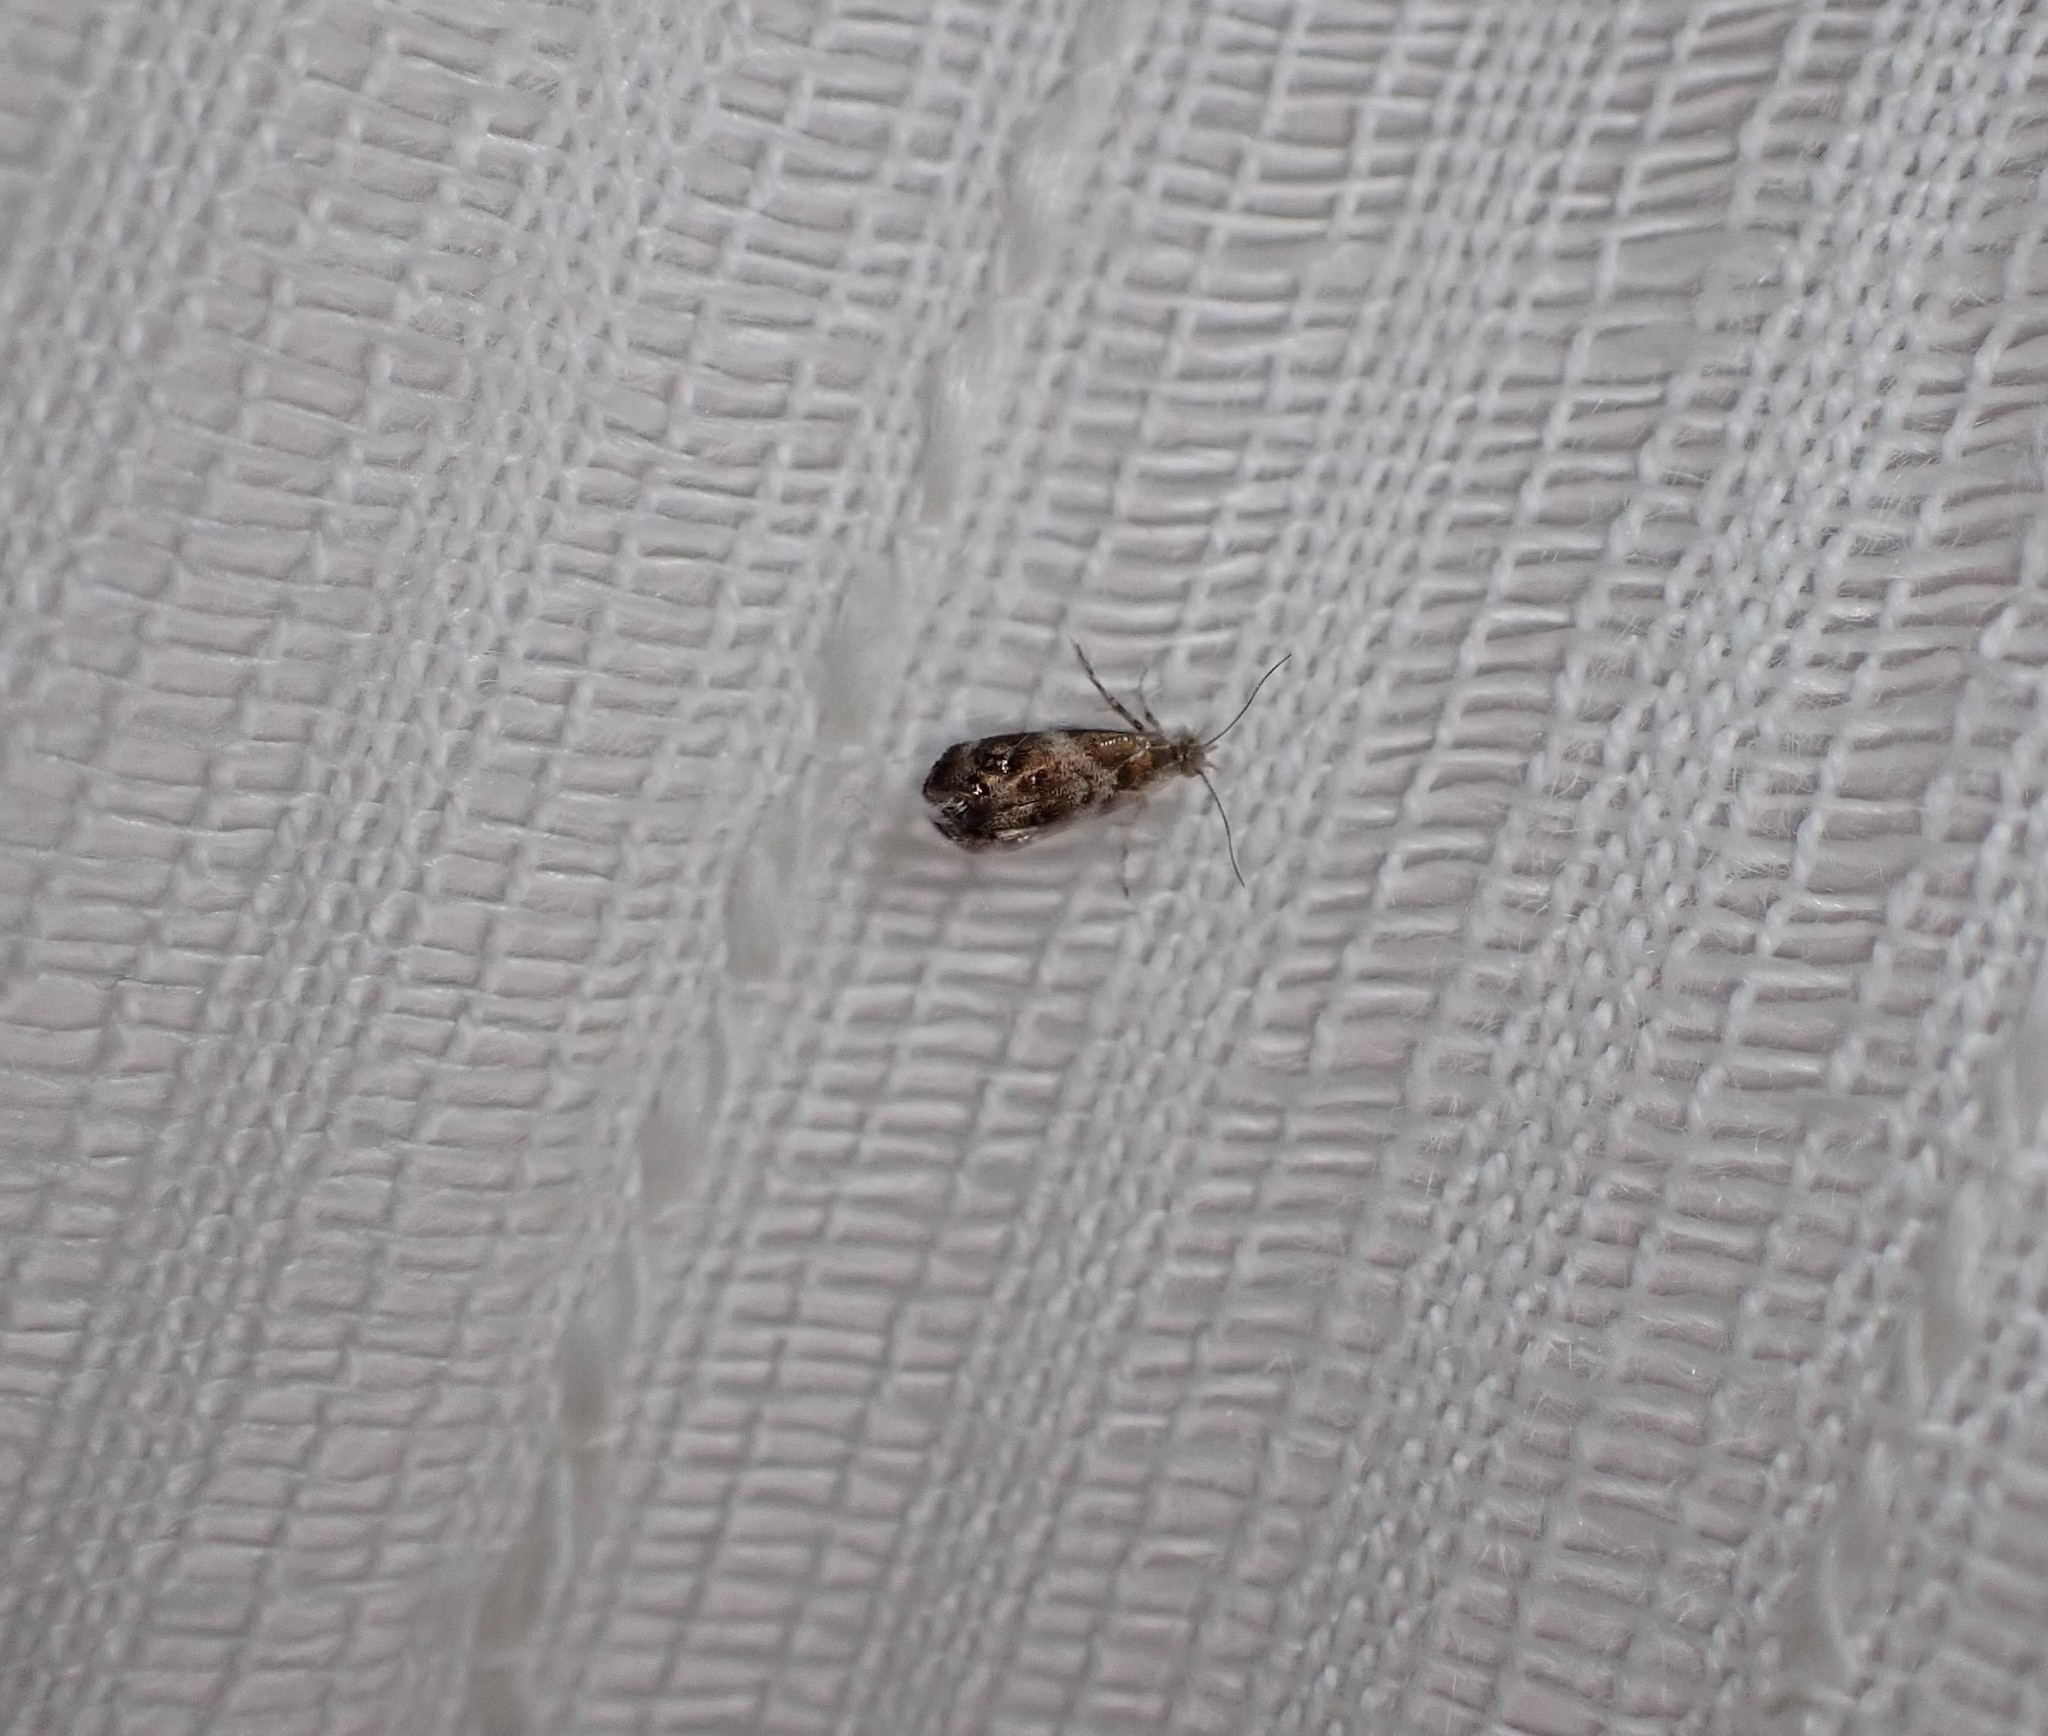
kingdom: Animalia
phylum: Arthropoda
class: Insecta
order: Lepidoptera
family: Choreutidae
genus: Tebenna
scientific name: Tebenna micalis
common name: Vagrant twitcher
